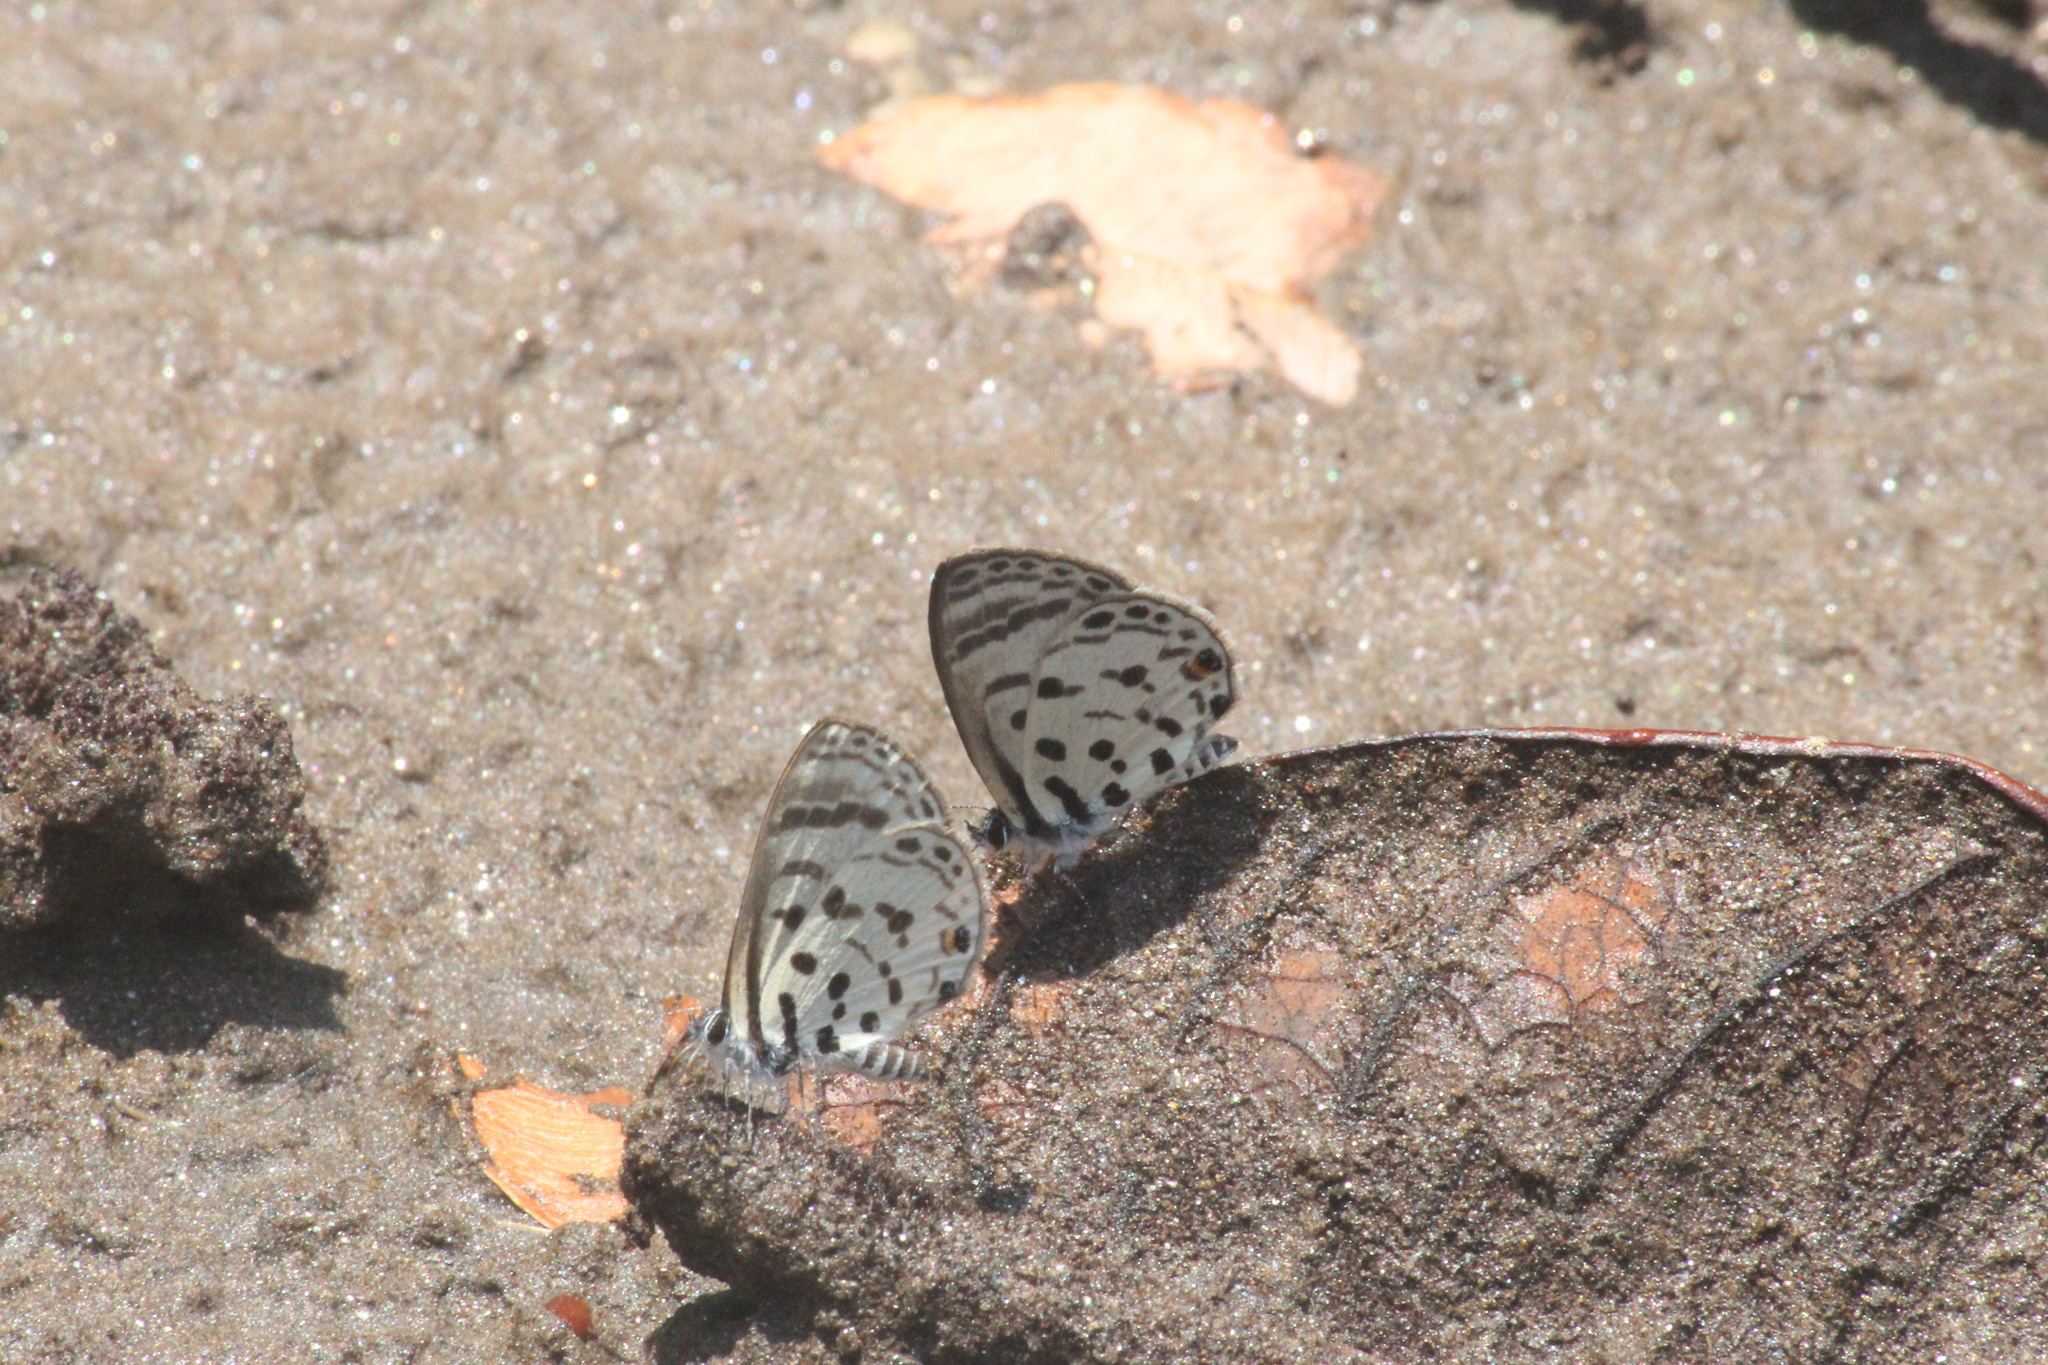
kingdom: Animalia
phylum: Arthropoda
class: Insecta
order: Lepidoptera
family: Lycaenidae
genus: Azanus
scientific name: Azanus mirza
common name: Mirza babul blue
